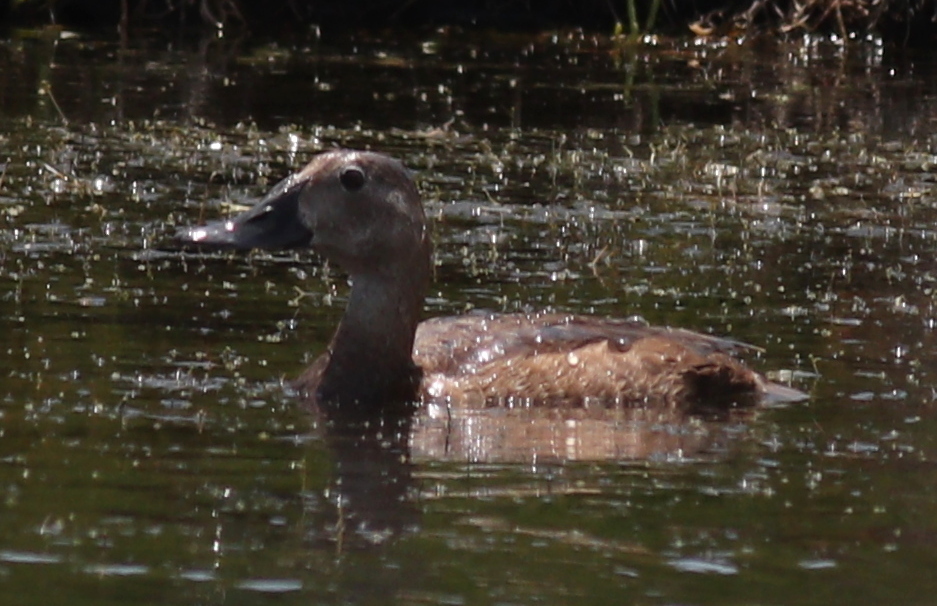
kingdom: Animalia
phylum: Chordata
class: Aves
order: Anseriformes
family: Anatidae
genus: Aythya
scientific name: Aythya ferina
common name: Common pochard
